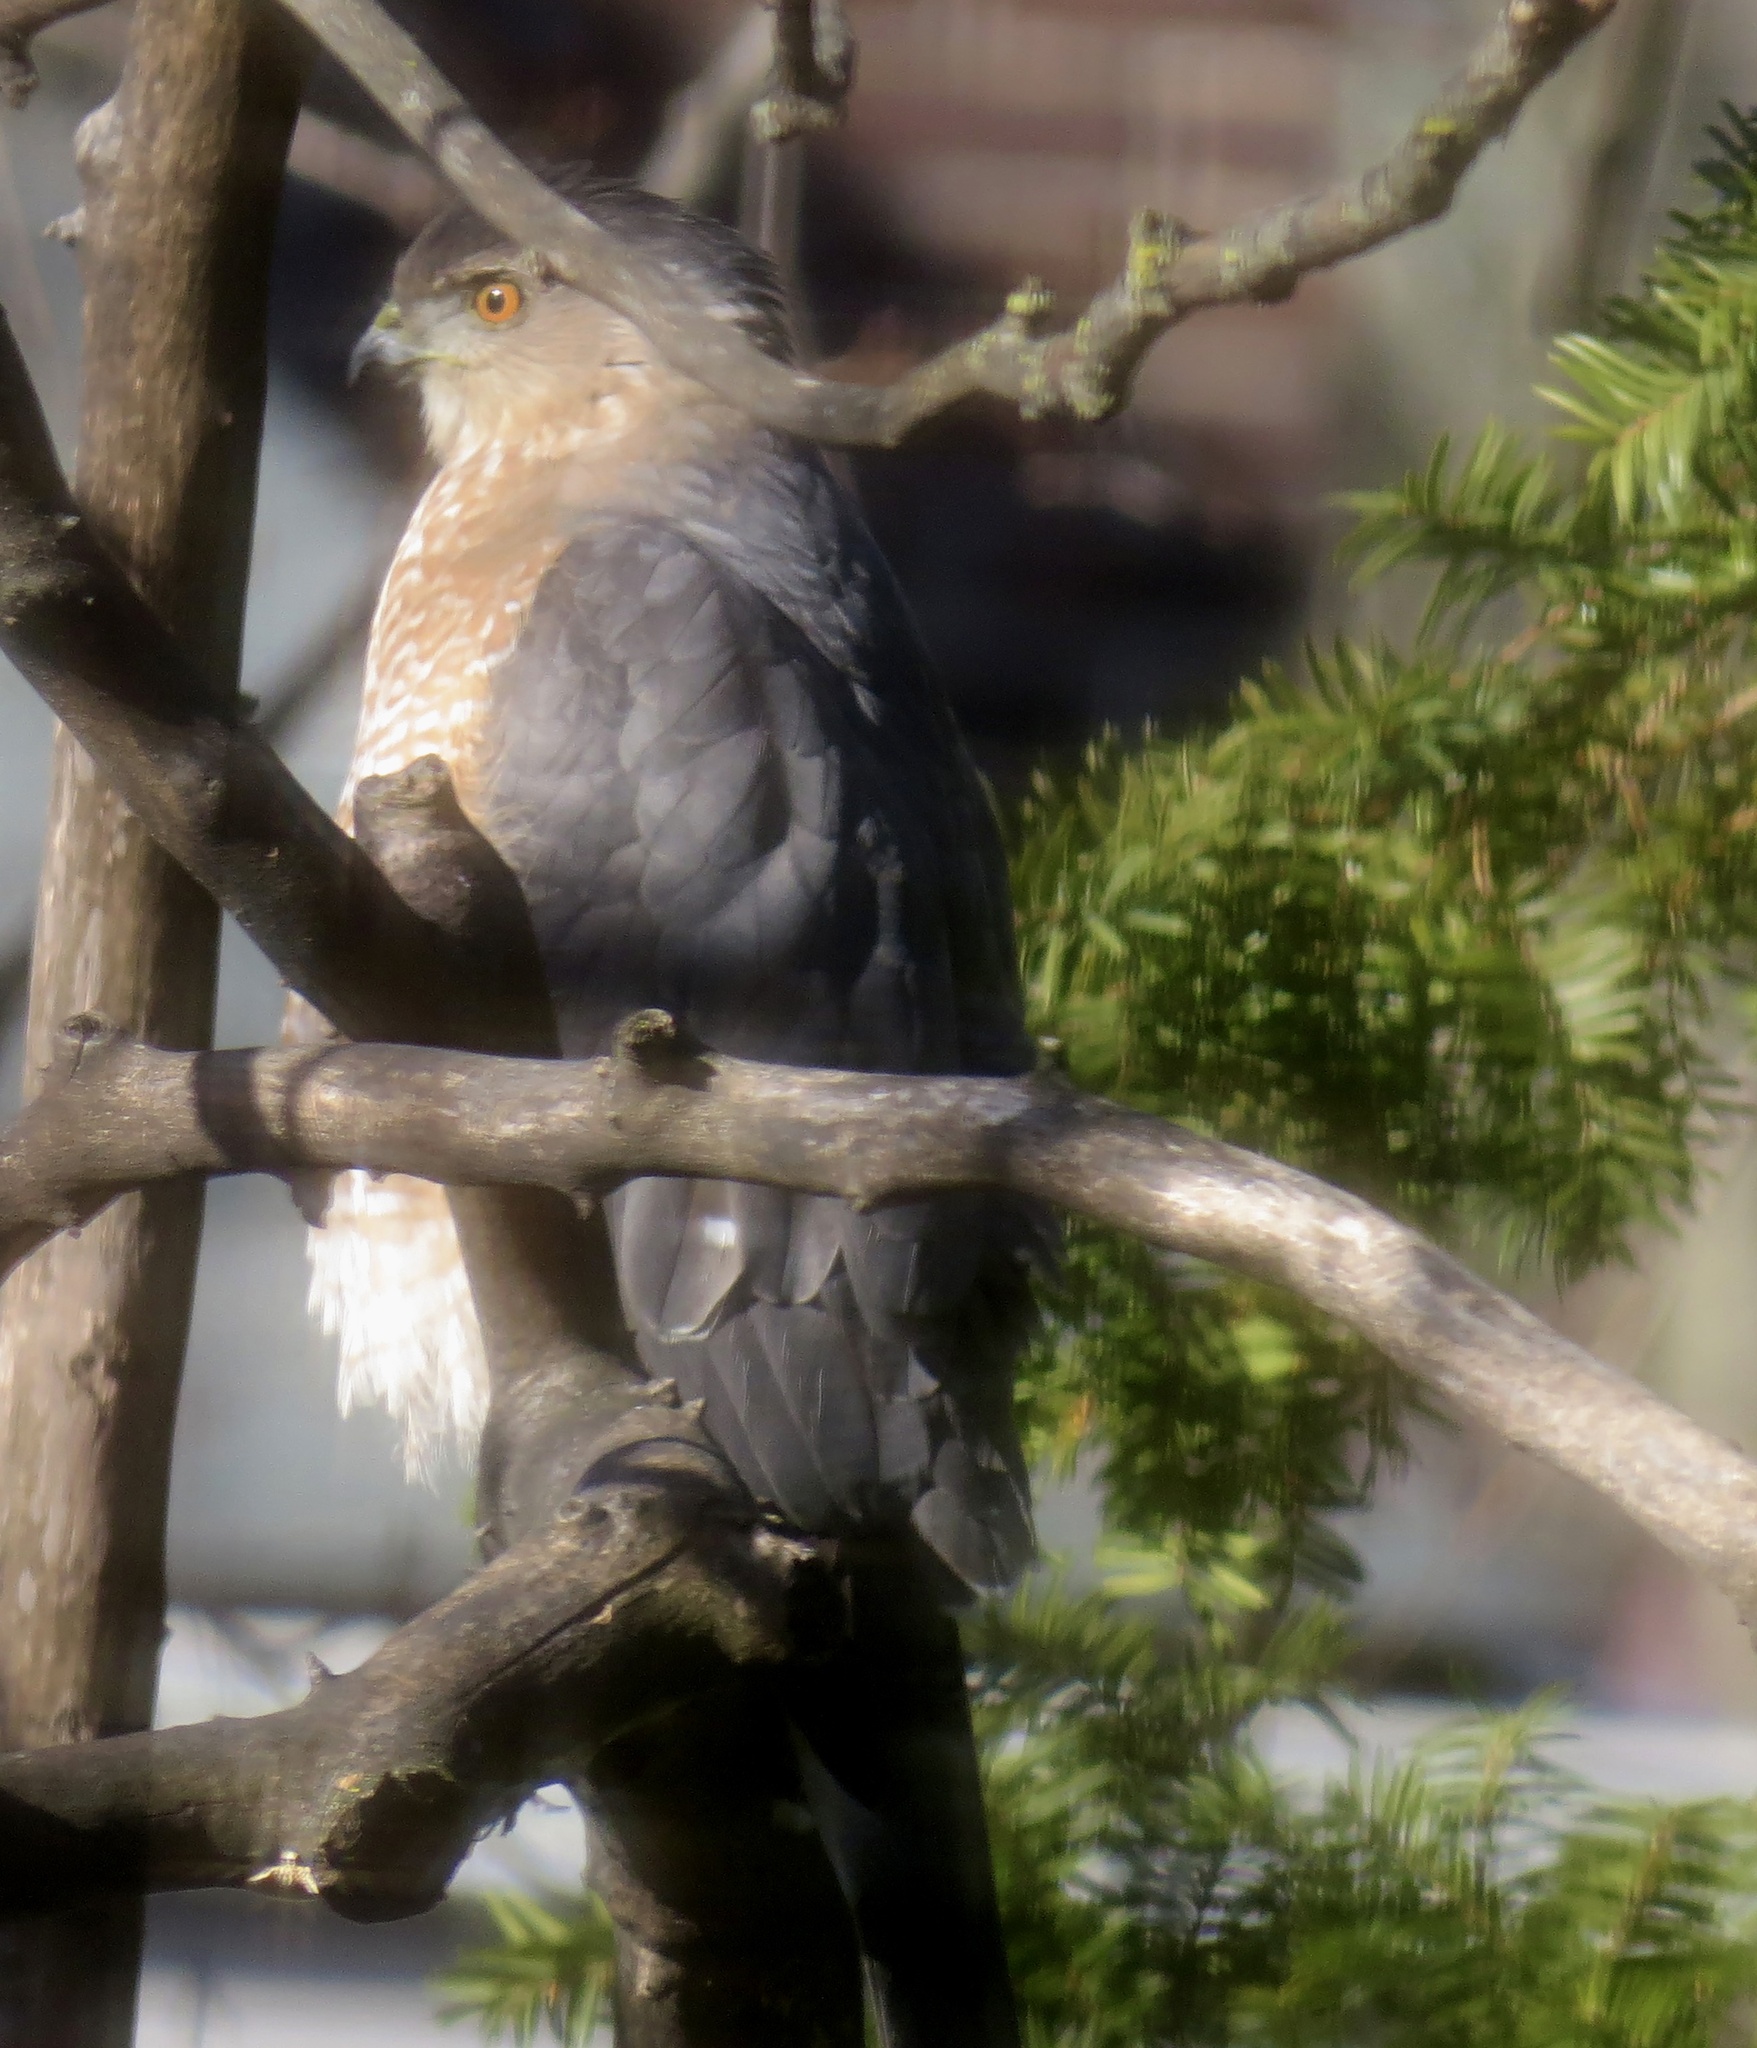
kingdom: Animalia
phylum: Chordata
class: Aves
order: Accipitriformes
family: Accipitridae
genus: Accipiter
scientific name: Accipiter cooperii
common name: Cooper's hawk
